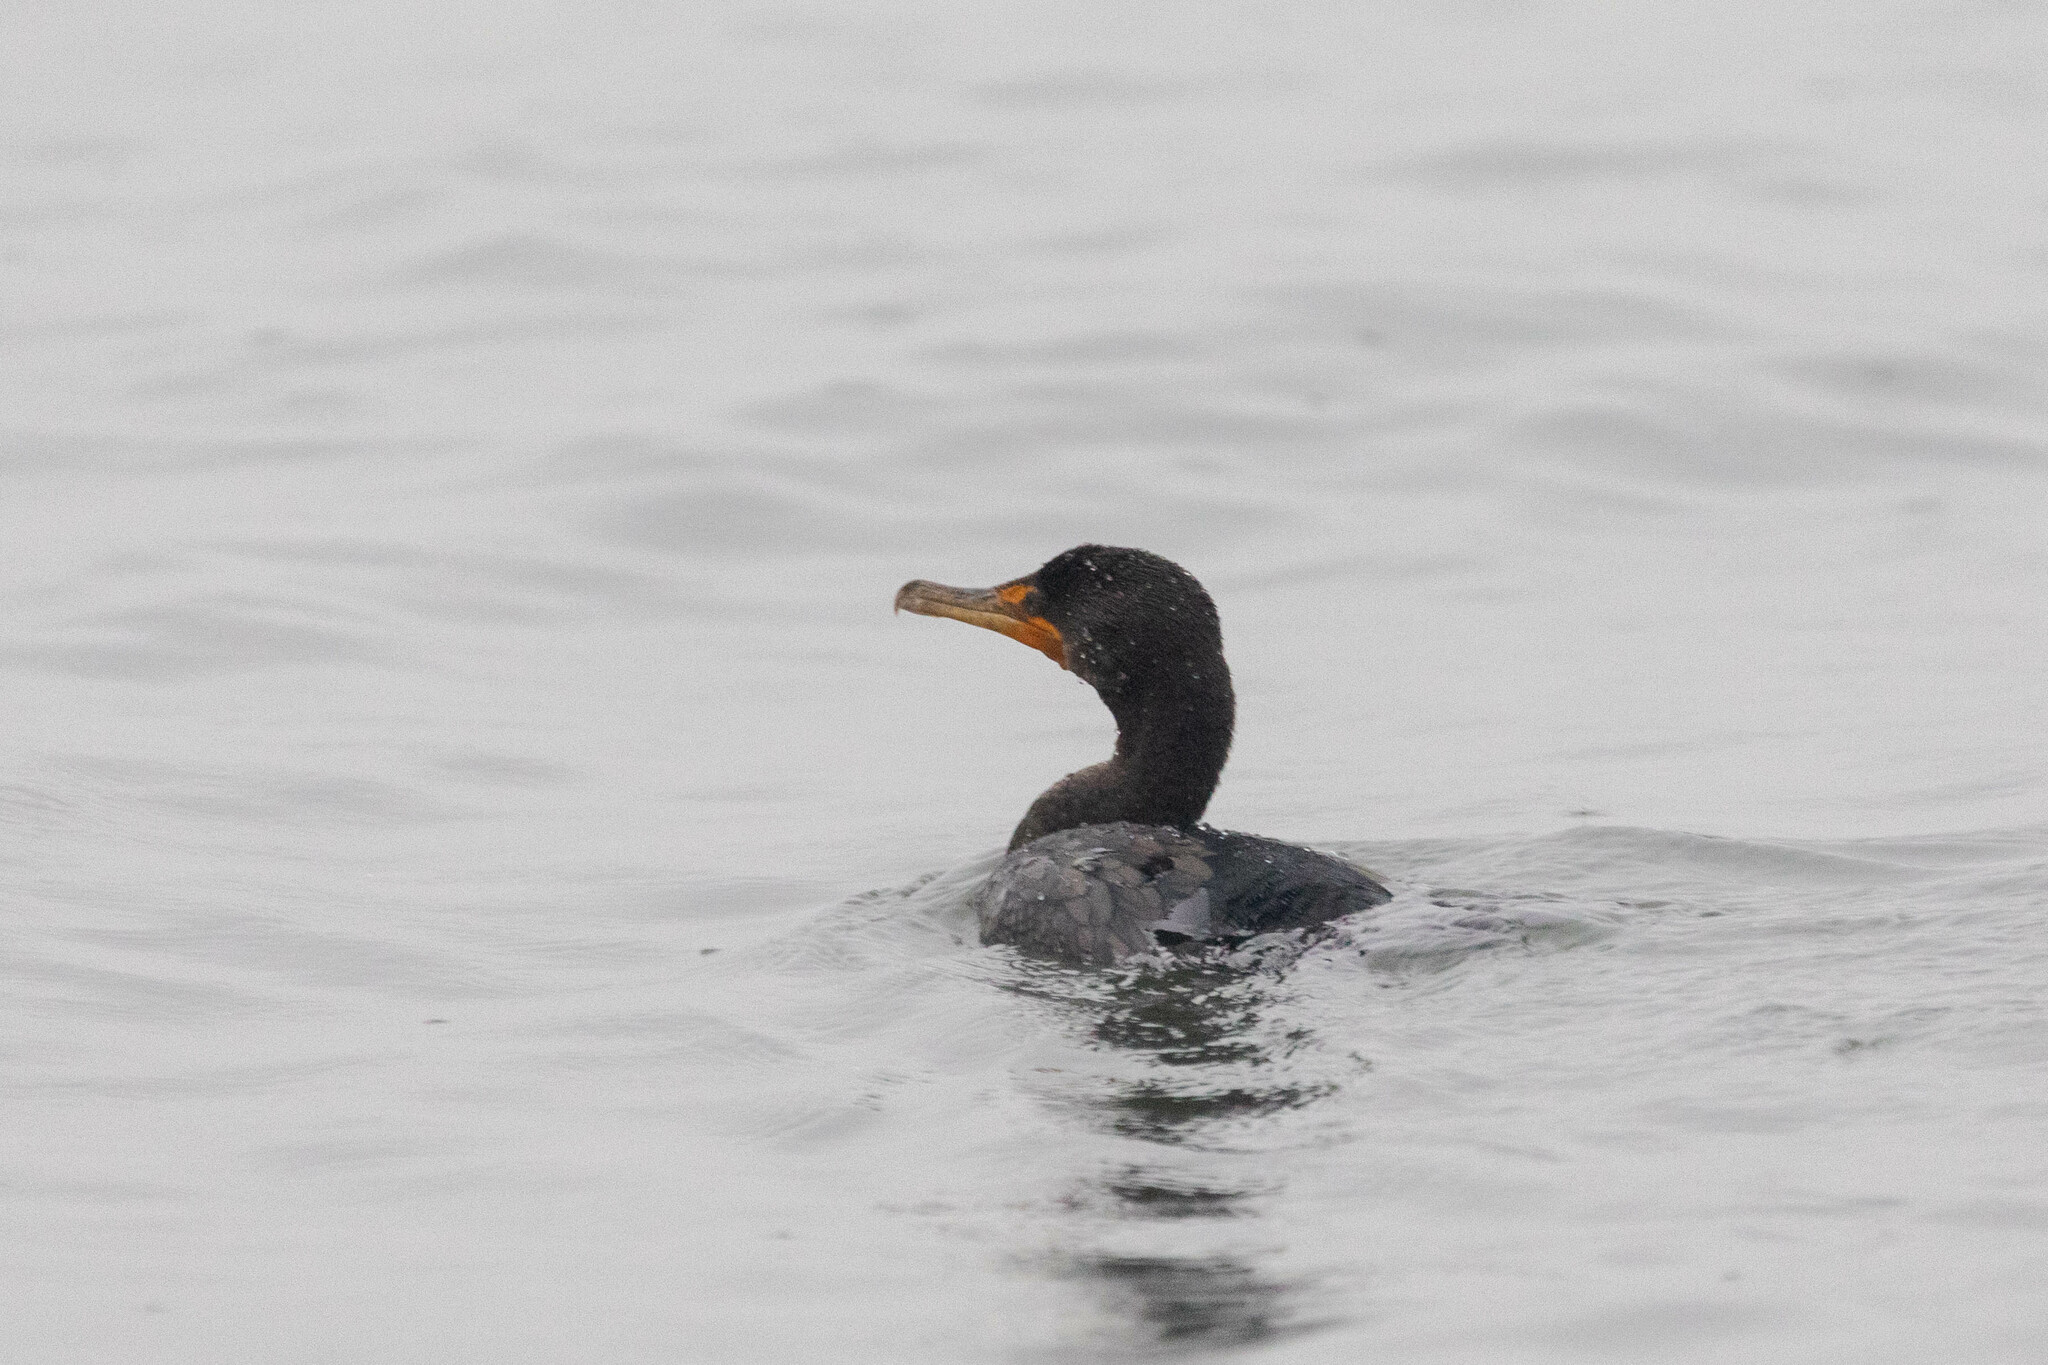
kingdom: Animalia
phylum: Chordata
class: Aves
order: Suliformes
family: Phalacrocoracidae
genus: Phalacrocorax
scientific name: Phalacrocorax auritus
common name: Double-crested cormorant
